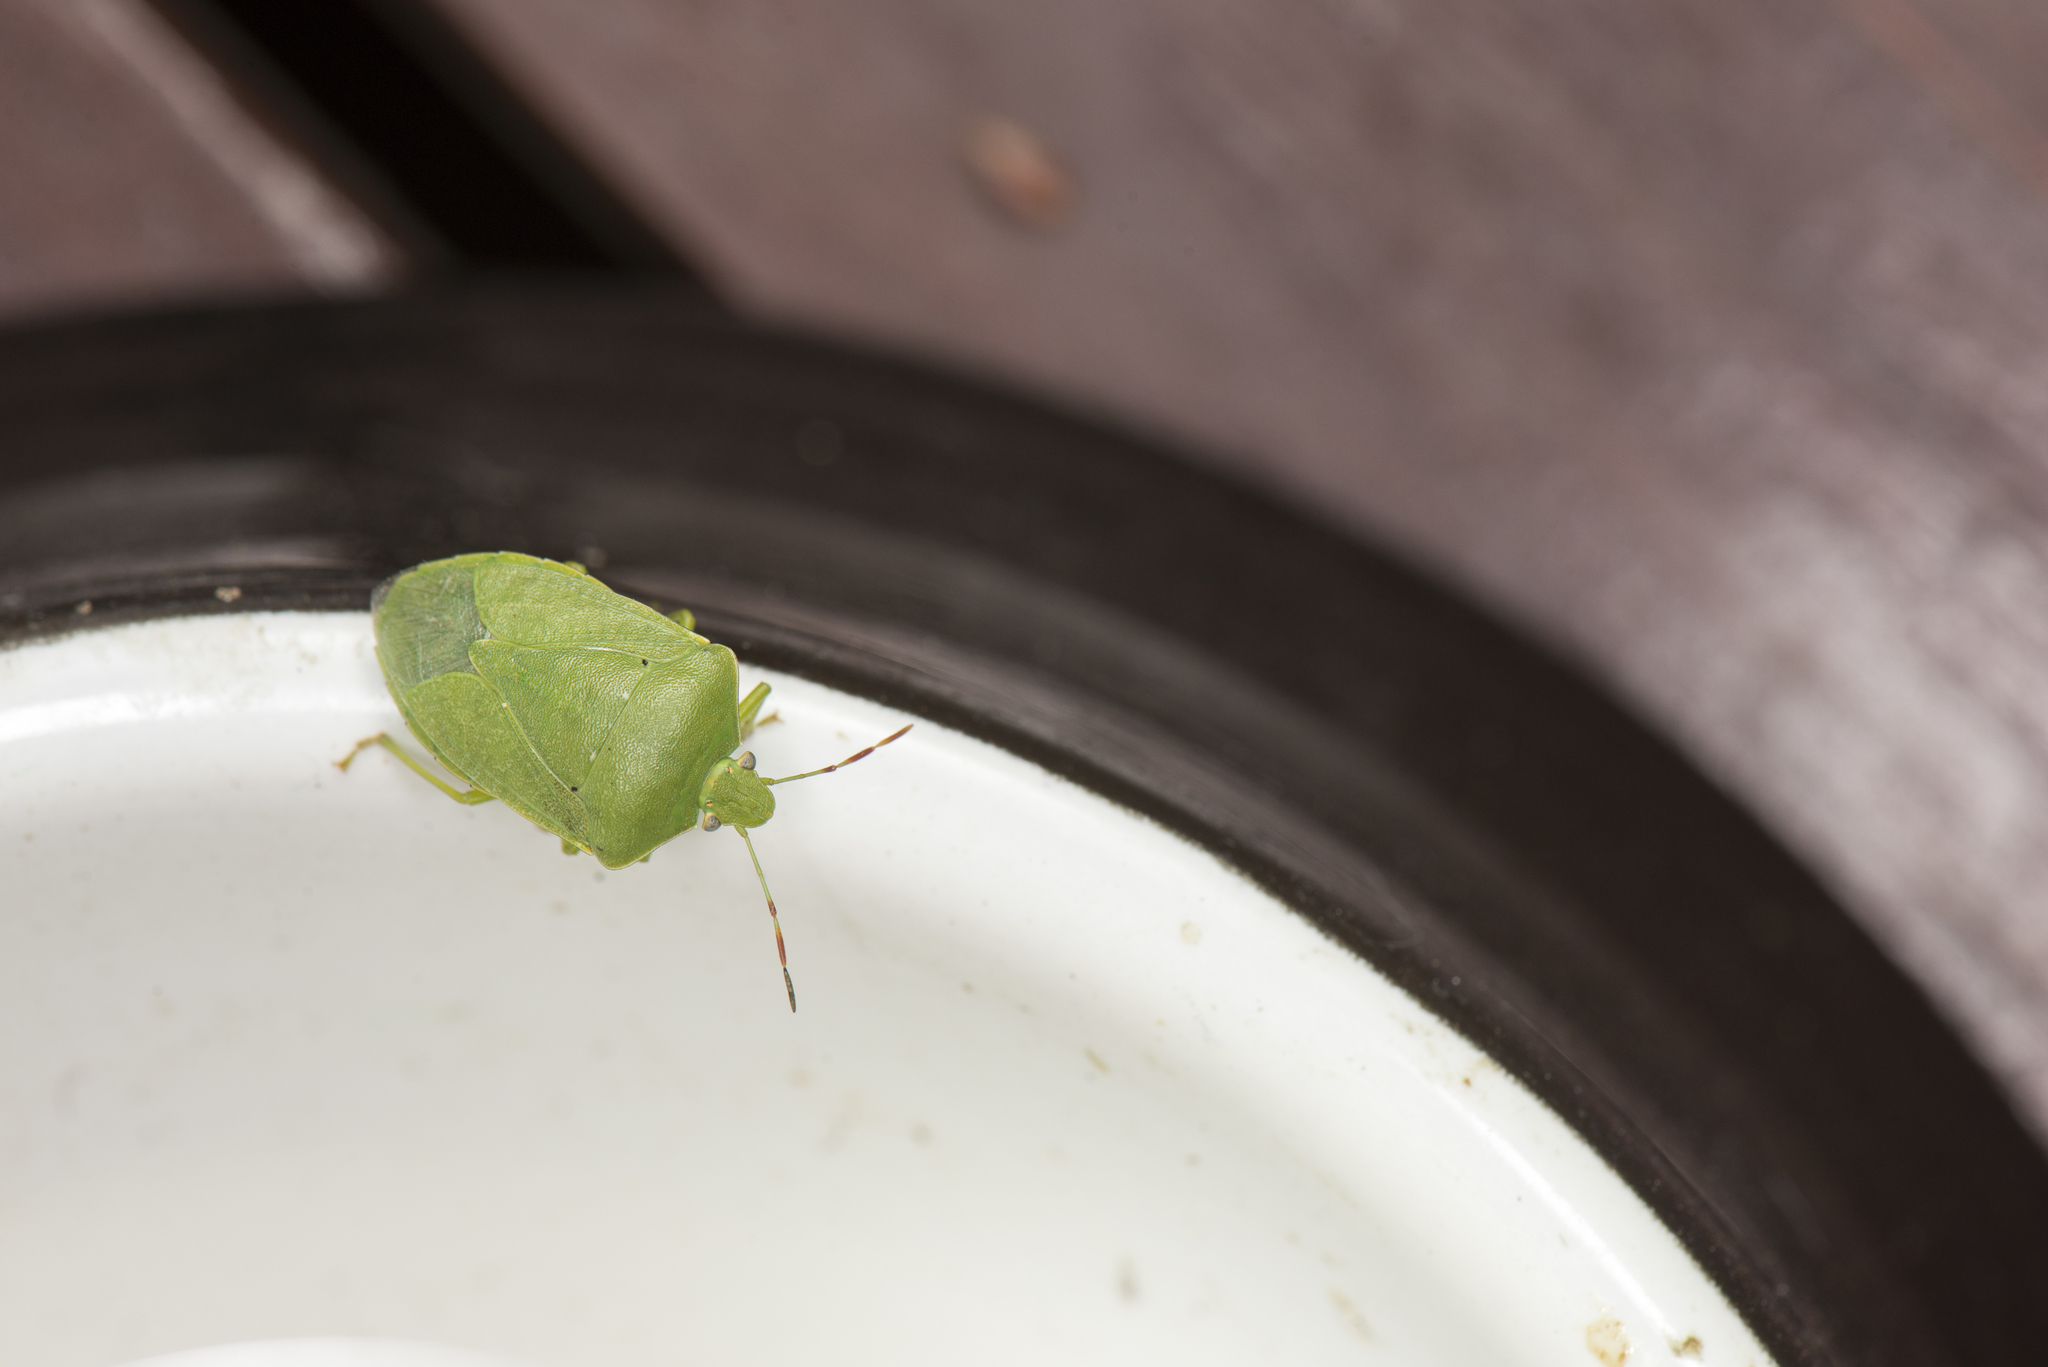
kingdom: Animalia
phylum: Arthropoda
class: Insecta
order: Hemiptera
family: Pentatomidae
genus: Nezara
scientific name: Nezara viridula
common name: Southern green stink bug
